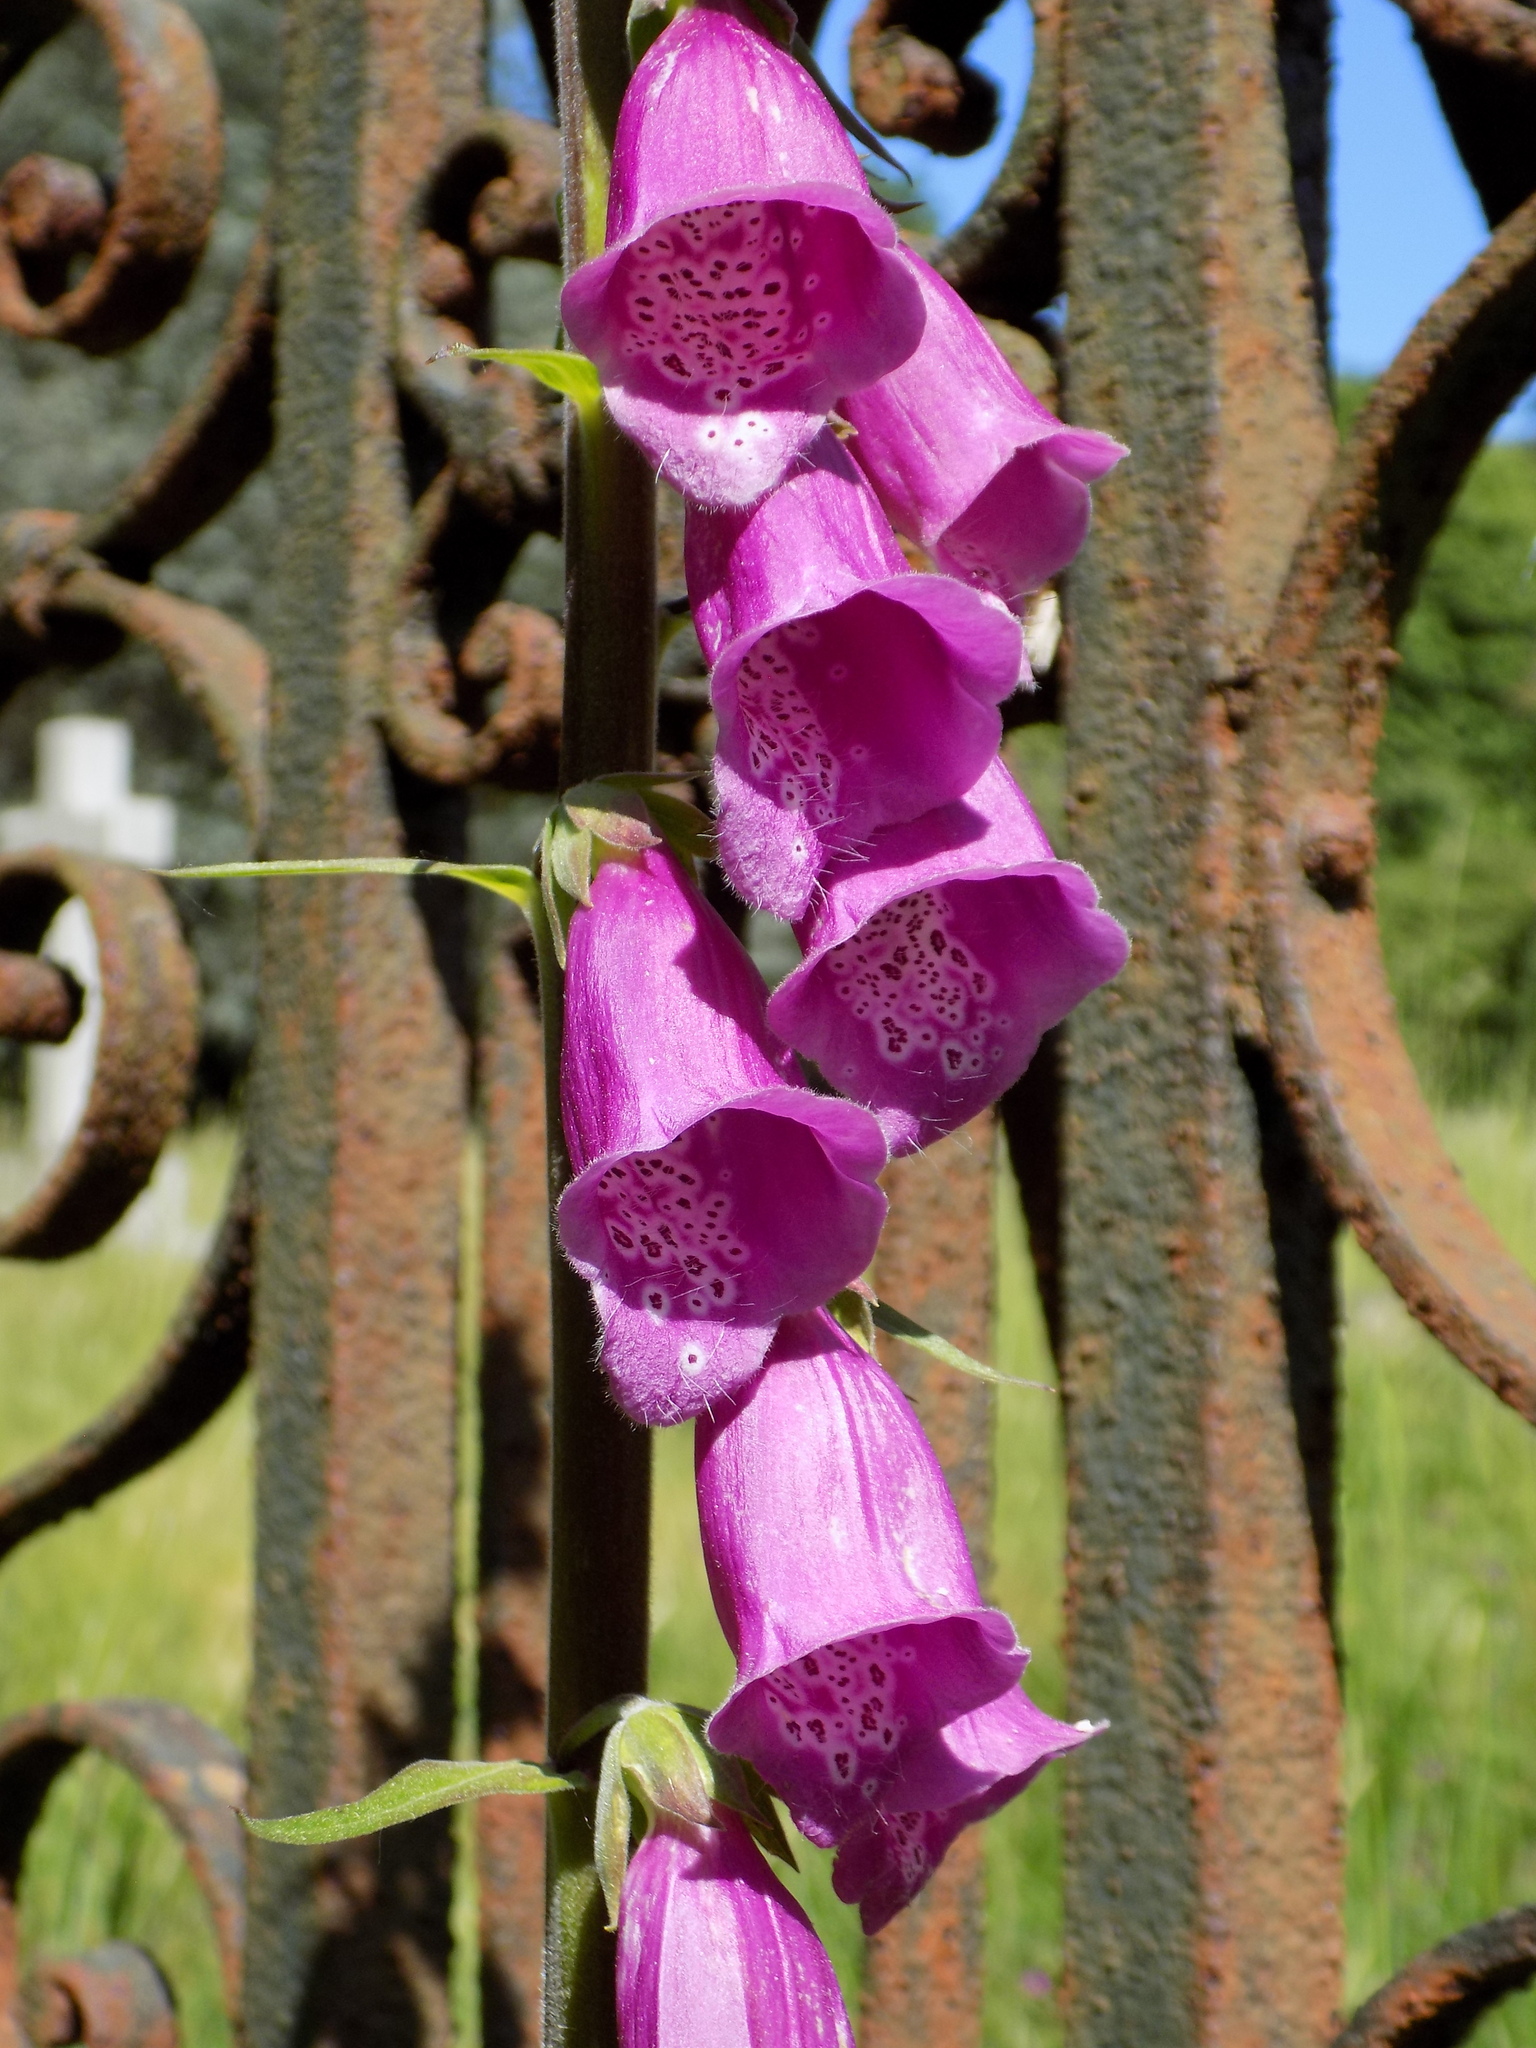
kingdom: Plantae
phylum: Tracheophyta
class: Magnoliopsida
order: Lamiales
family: Plantaginaceae
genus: Digitalis
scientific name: Digitalis purpurea
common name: Foxglove
